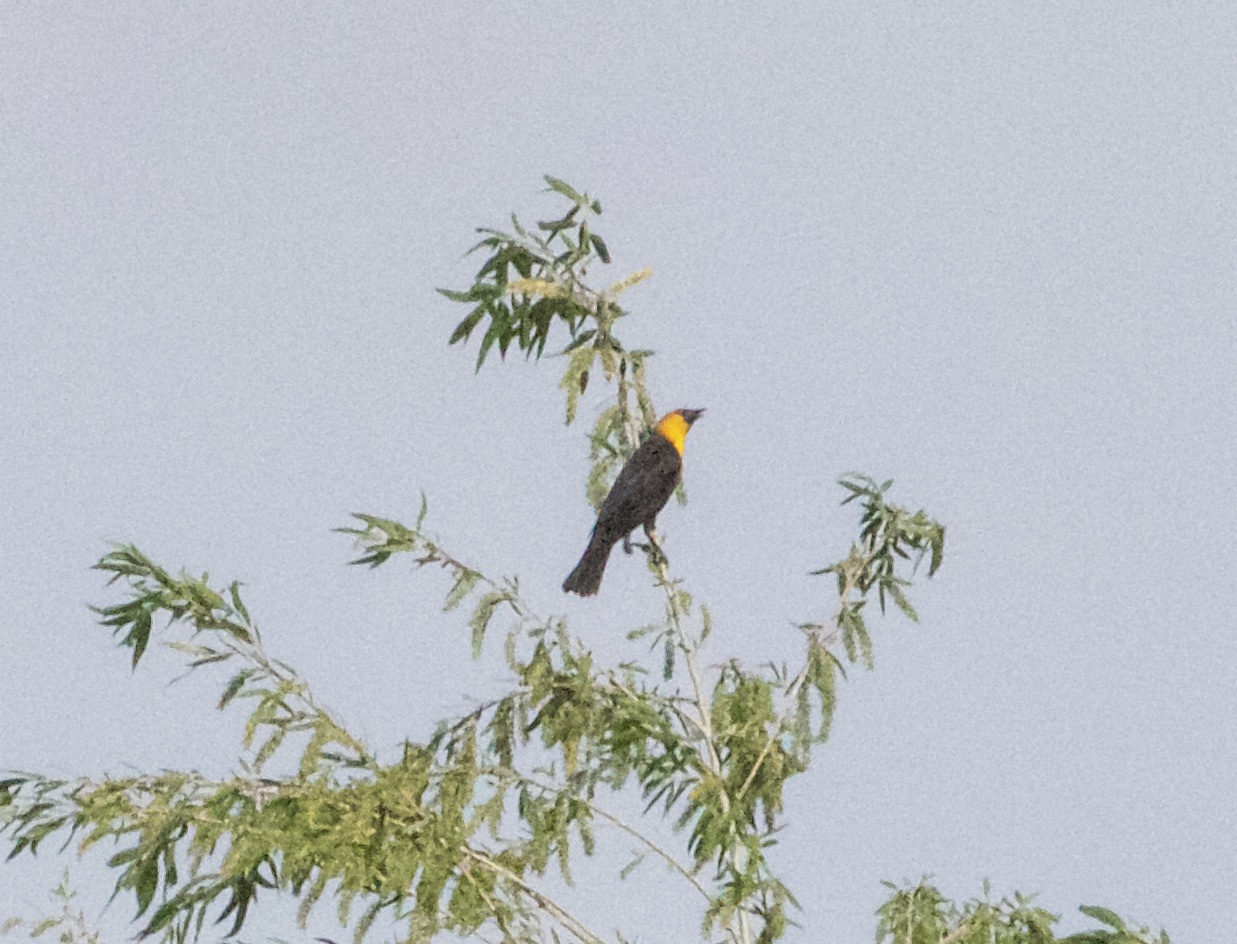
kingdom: Animalia
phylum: Chordata
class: Aves
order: Passeriformes
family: Icteridae
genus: Xanthocephalus
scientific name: Xanthocephalus xanthocephalus
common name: Yellow-headed blackbird
